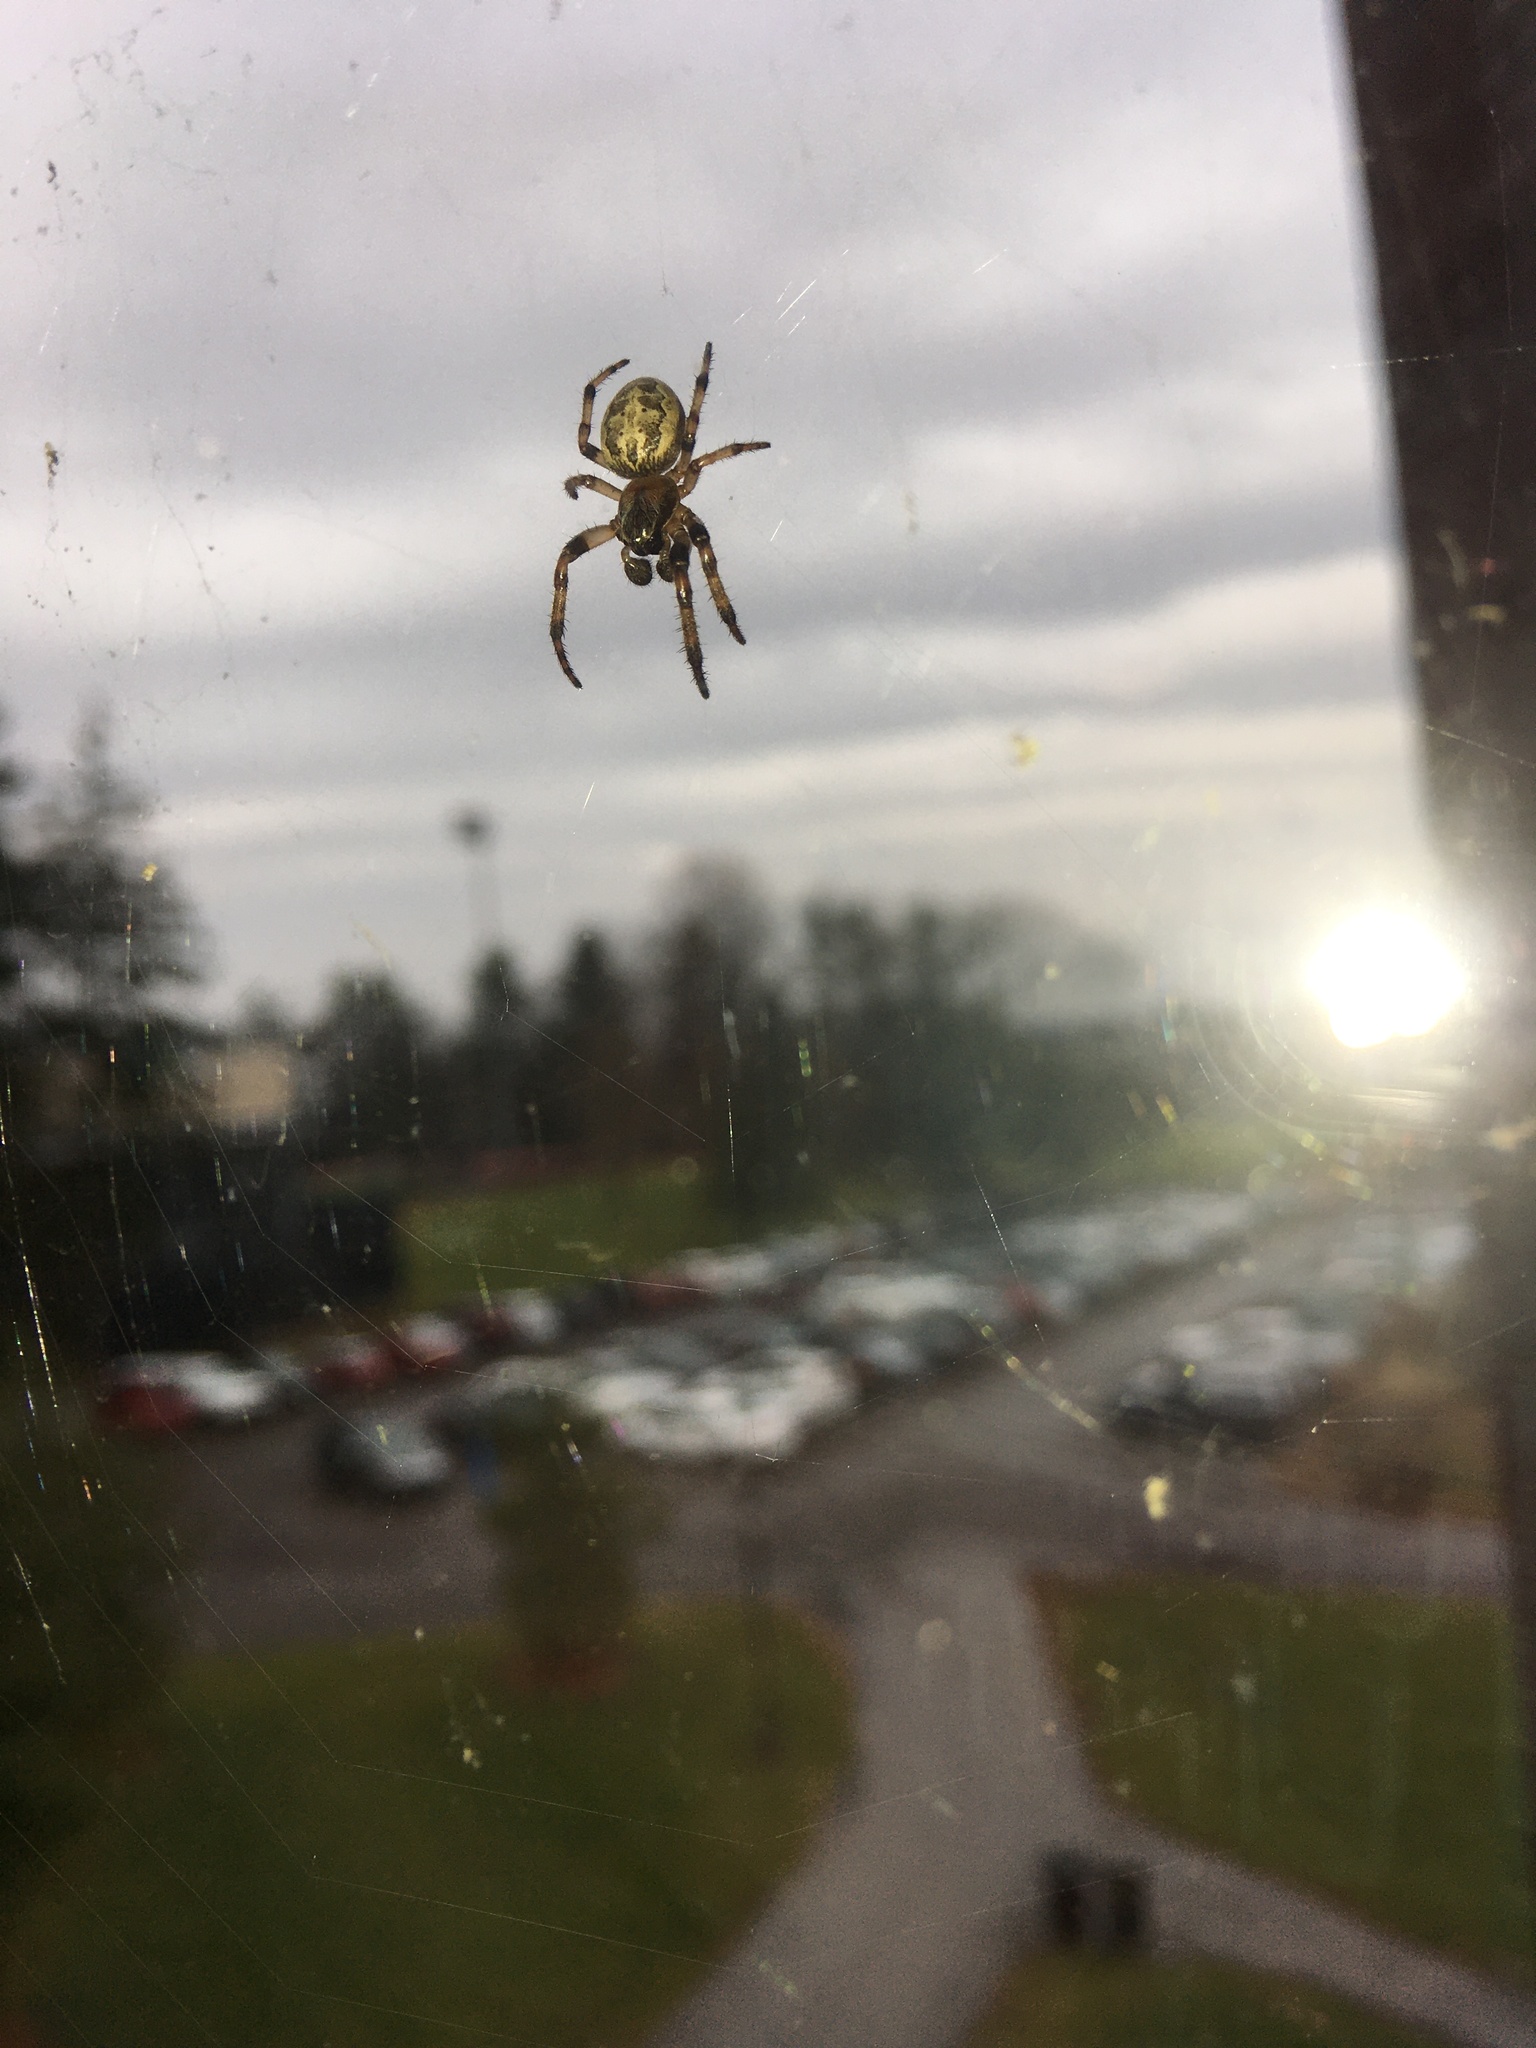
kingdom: Animalia
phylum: Arthropoda
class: Arachnida
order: Araneae
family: Araneidae
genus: Larinioides
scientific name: Larinioides cornutus
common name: Furrow orbweaver
